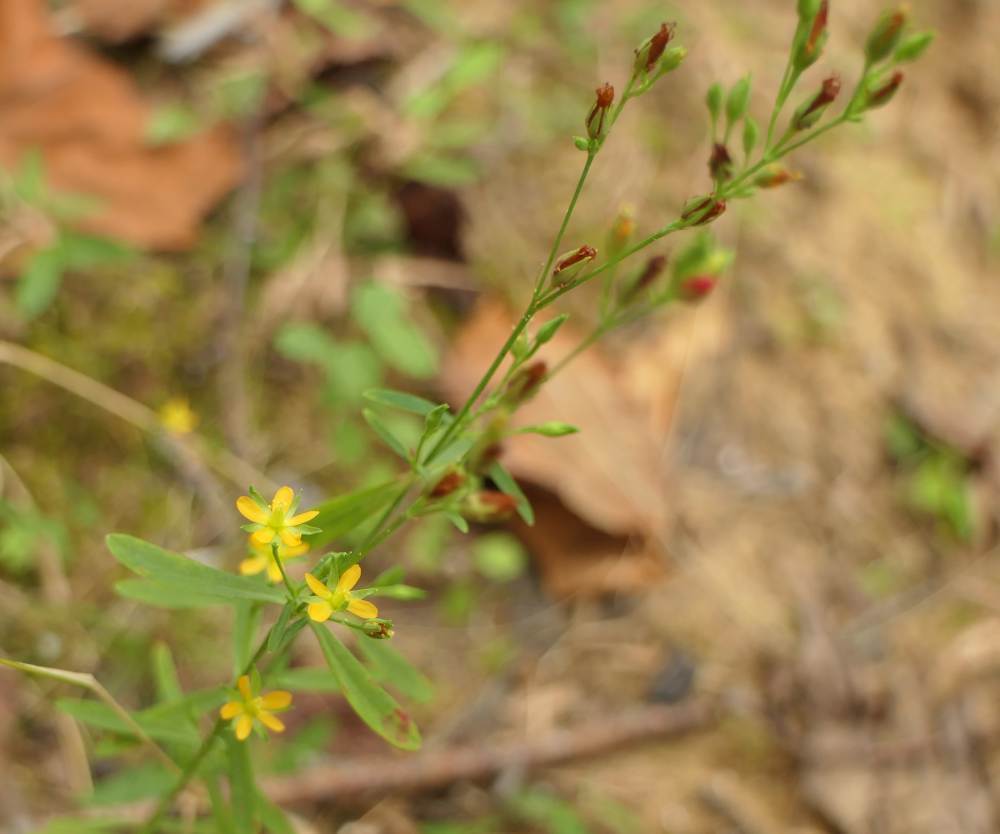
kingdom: Plantae
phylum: Tracheophyta
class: Magnoliopsida
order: Malpighiales
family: Hypericaceae
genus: Hypericum
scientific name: Hypericum canadense
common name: Irish st. john's-wort
